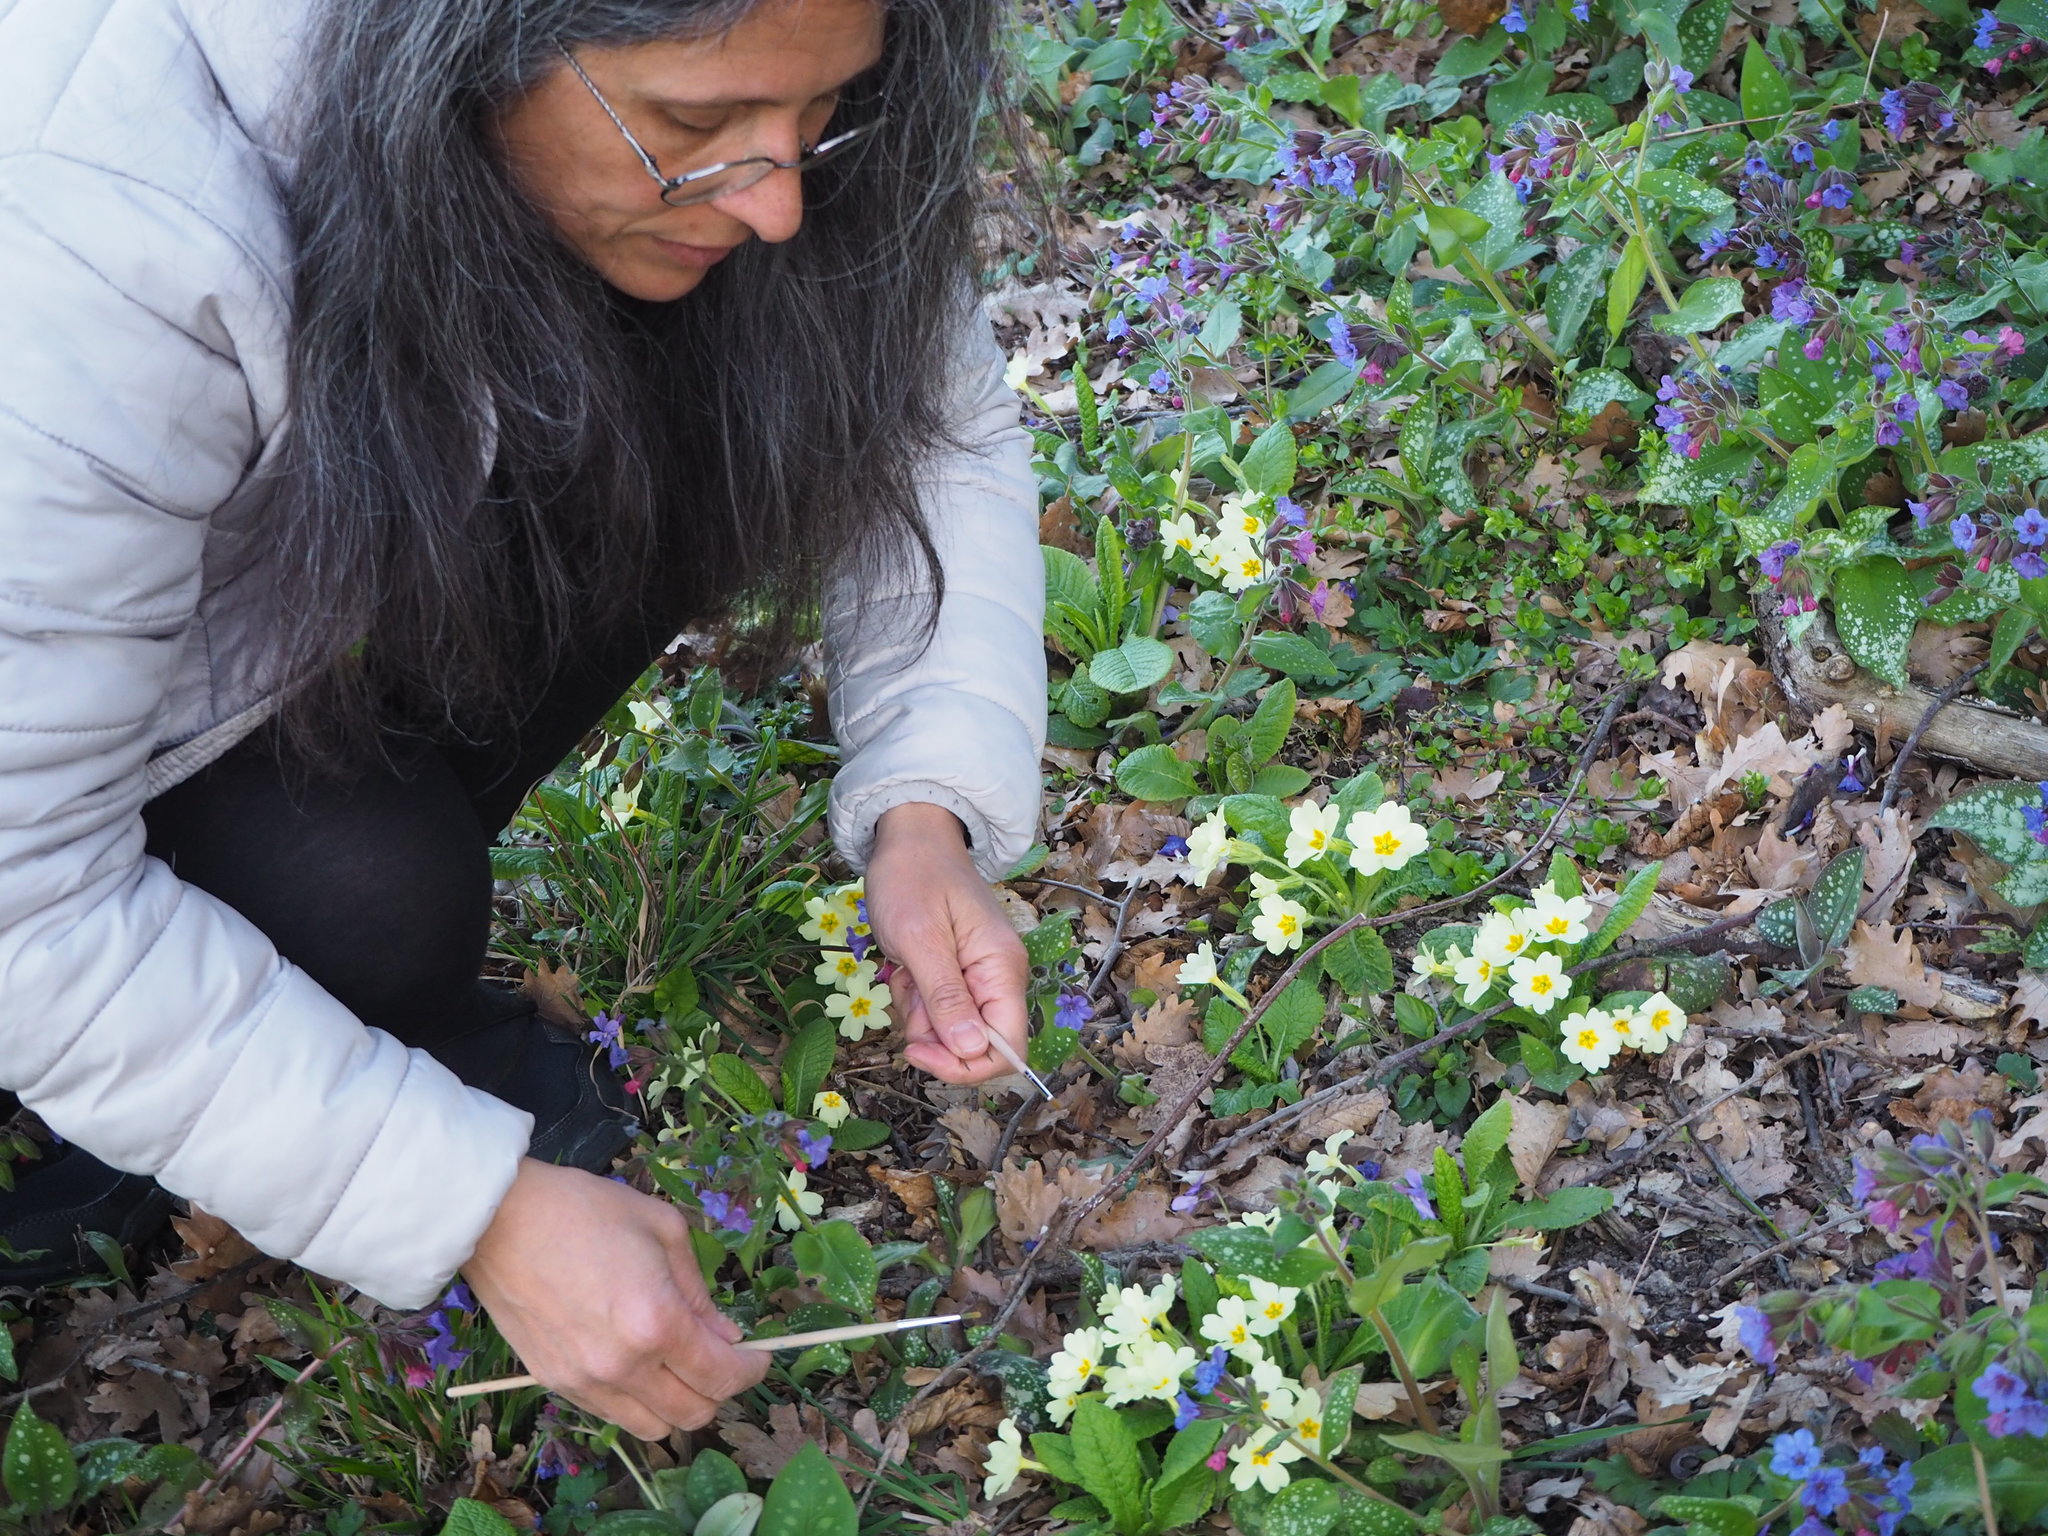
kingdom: Plantae
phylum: Tracheophyta
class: Magnoliopsida
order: Ericales
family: Primulaceae
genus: Primula
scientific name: Primula vulgaris
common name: Primrose
